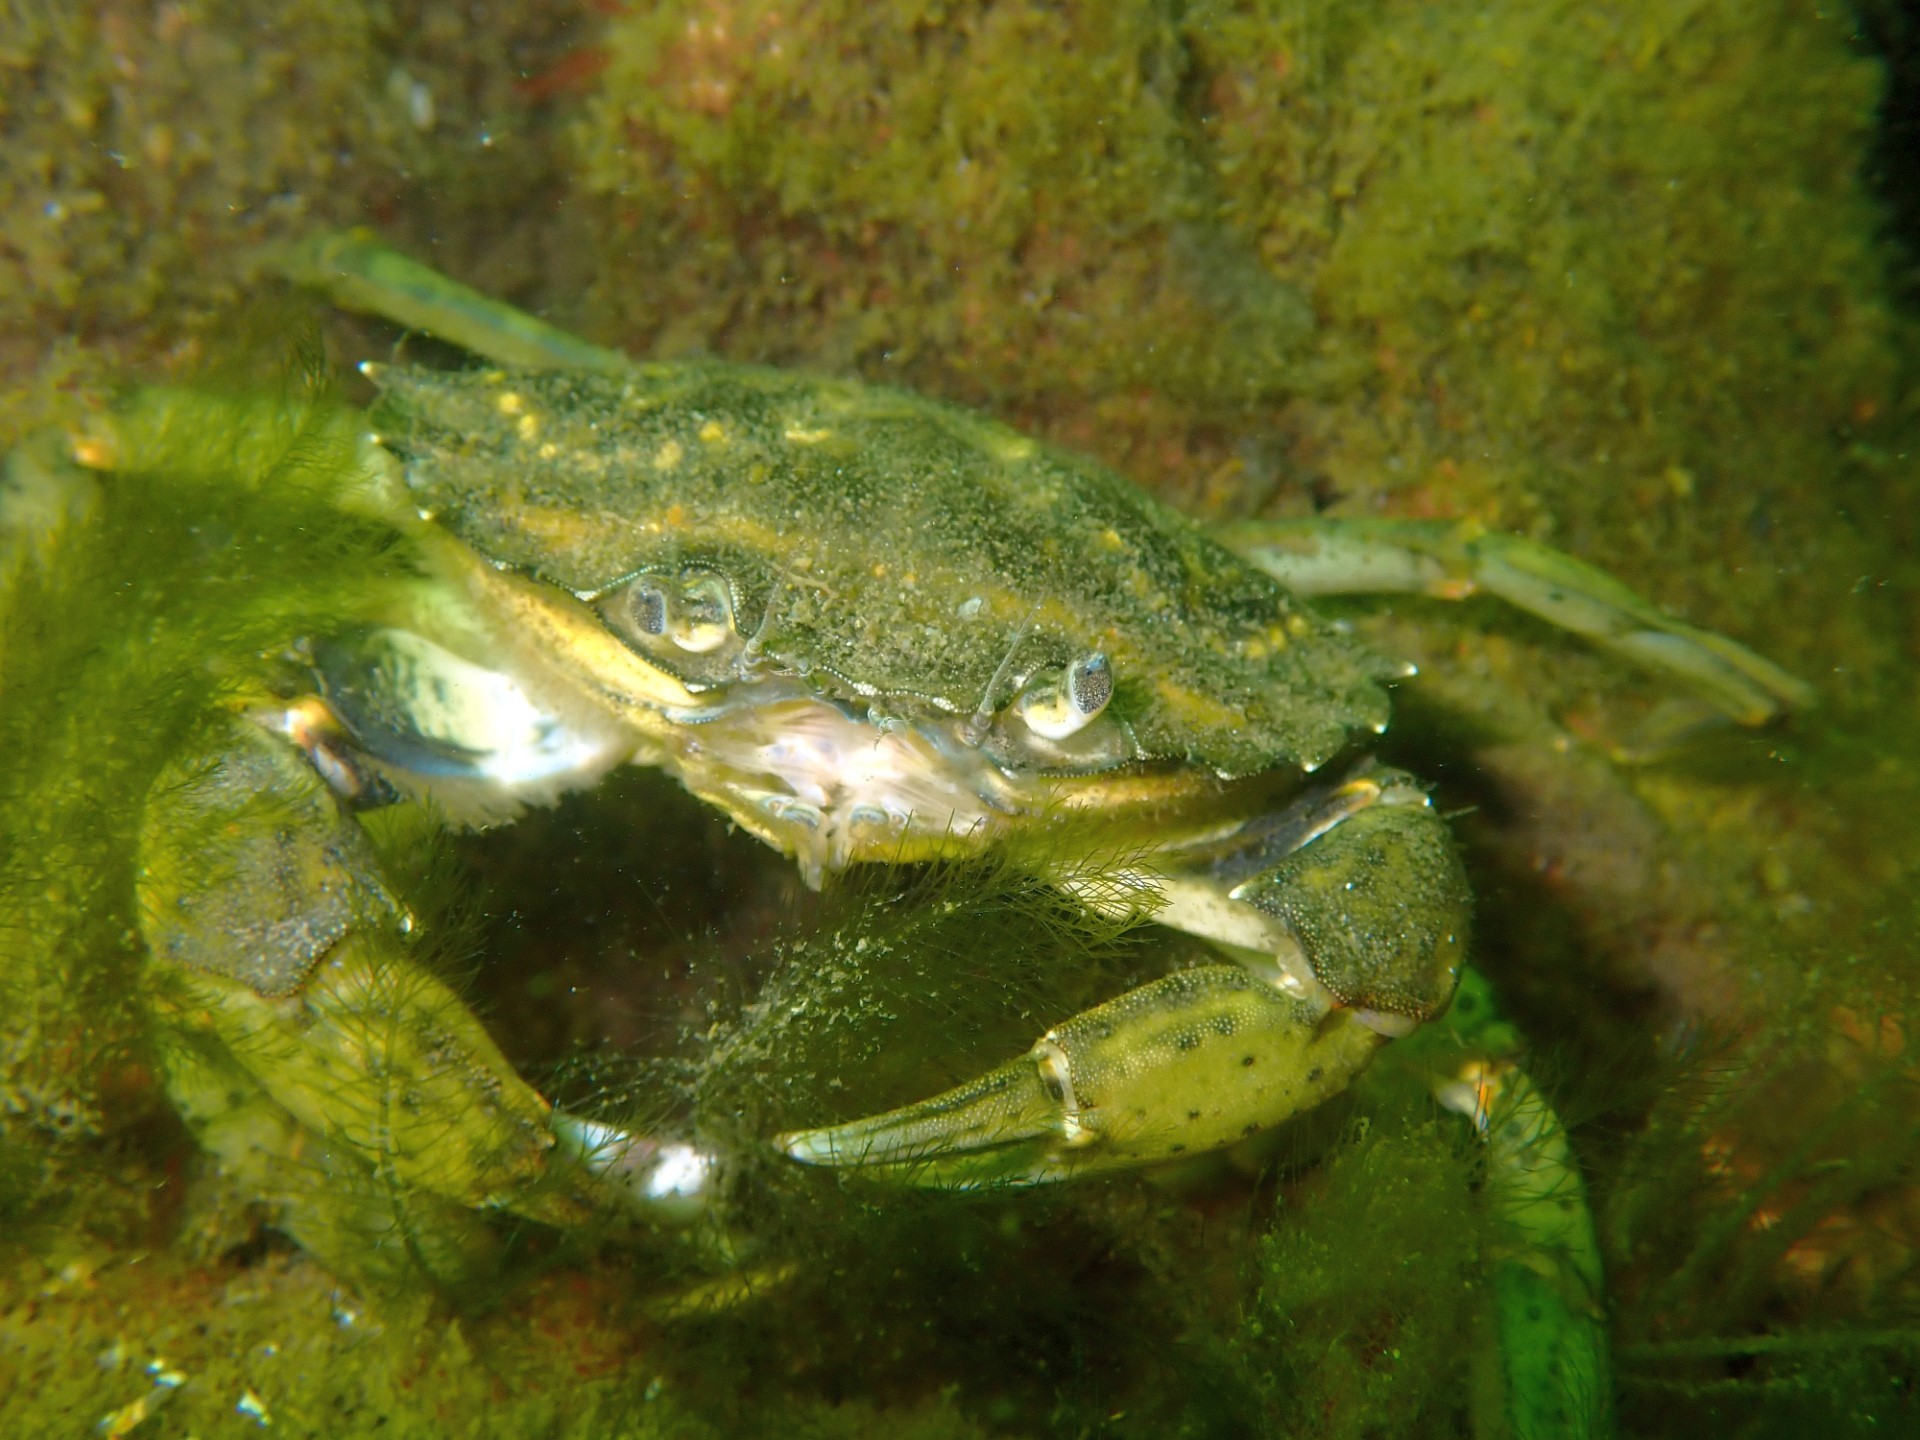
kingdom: Animalia
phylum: Arthropoda
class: Malacostraca
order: Decapoda
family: Carcinidae
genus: Carcinus
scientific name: Carcinus maenas
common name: European green crab
